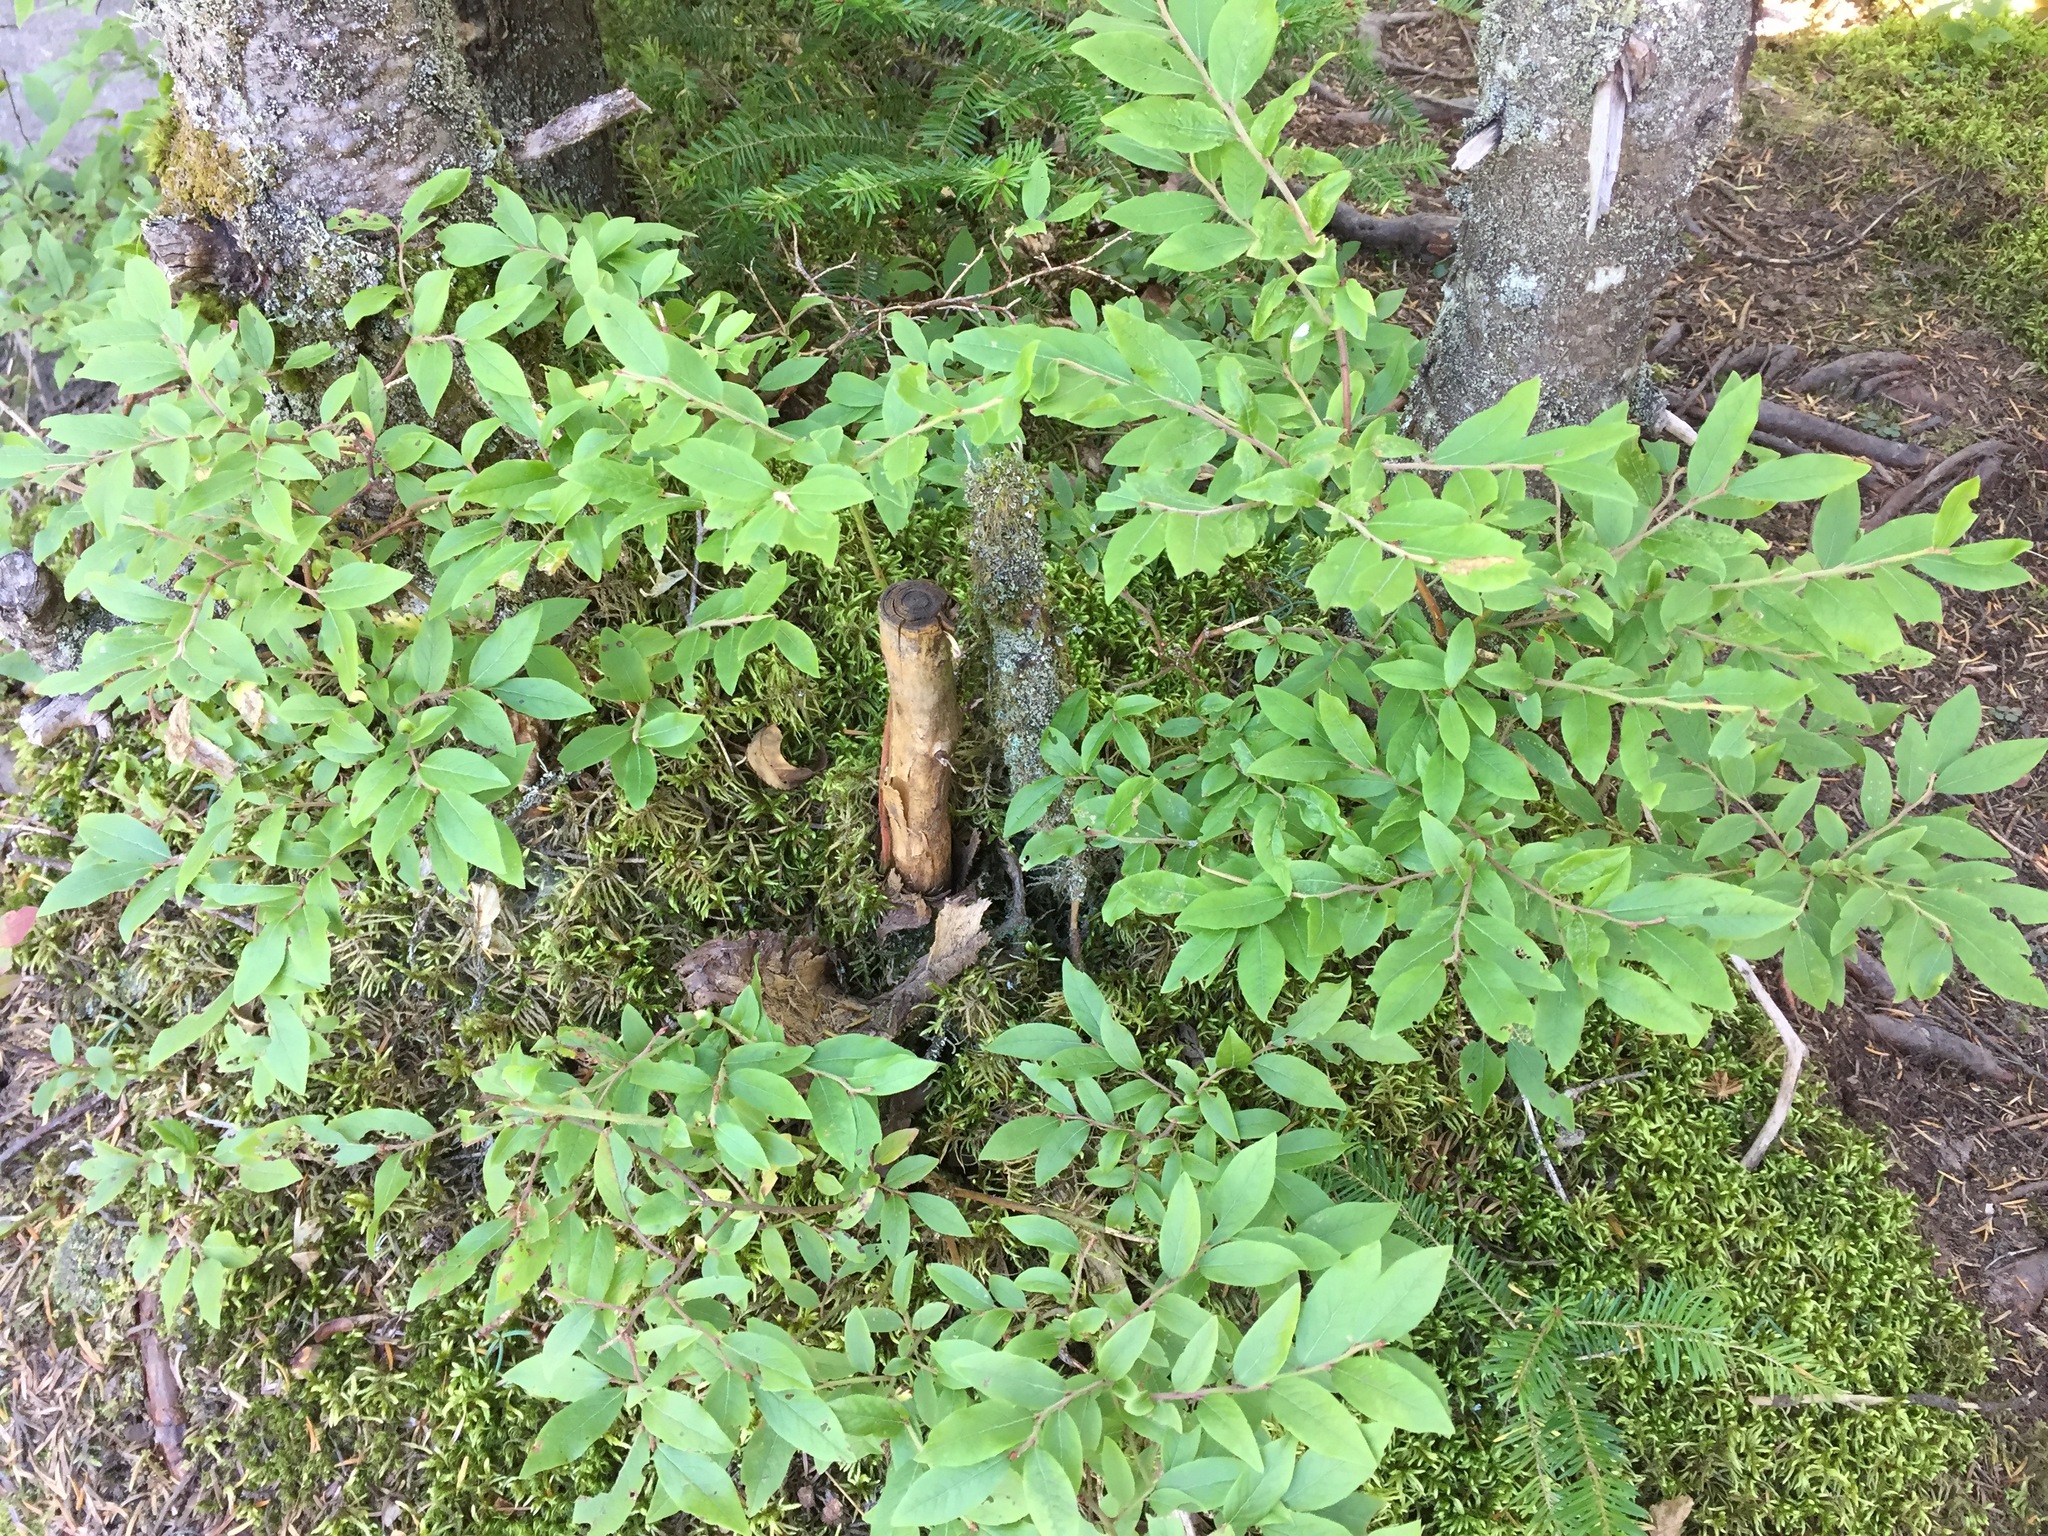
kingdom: Plantae
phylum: Tracheophyta
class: Magnoliopsida
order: Ericales
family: Ericaceae
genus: Vaccinium
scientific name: Vaccinium myrtilloides
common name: Canada blueberry
